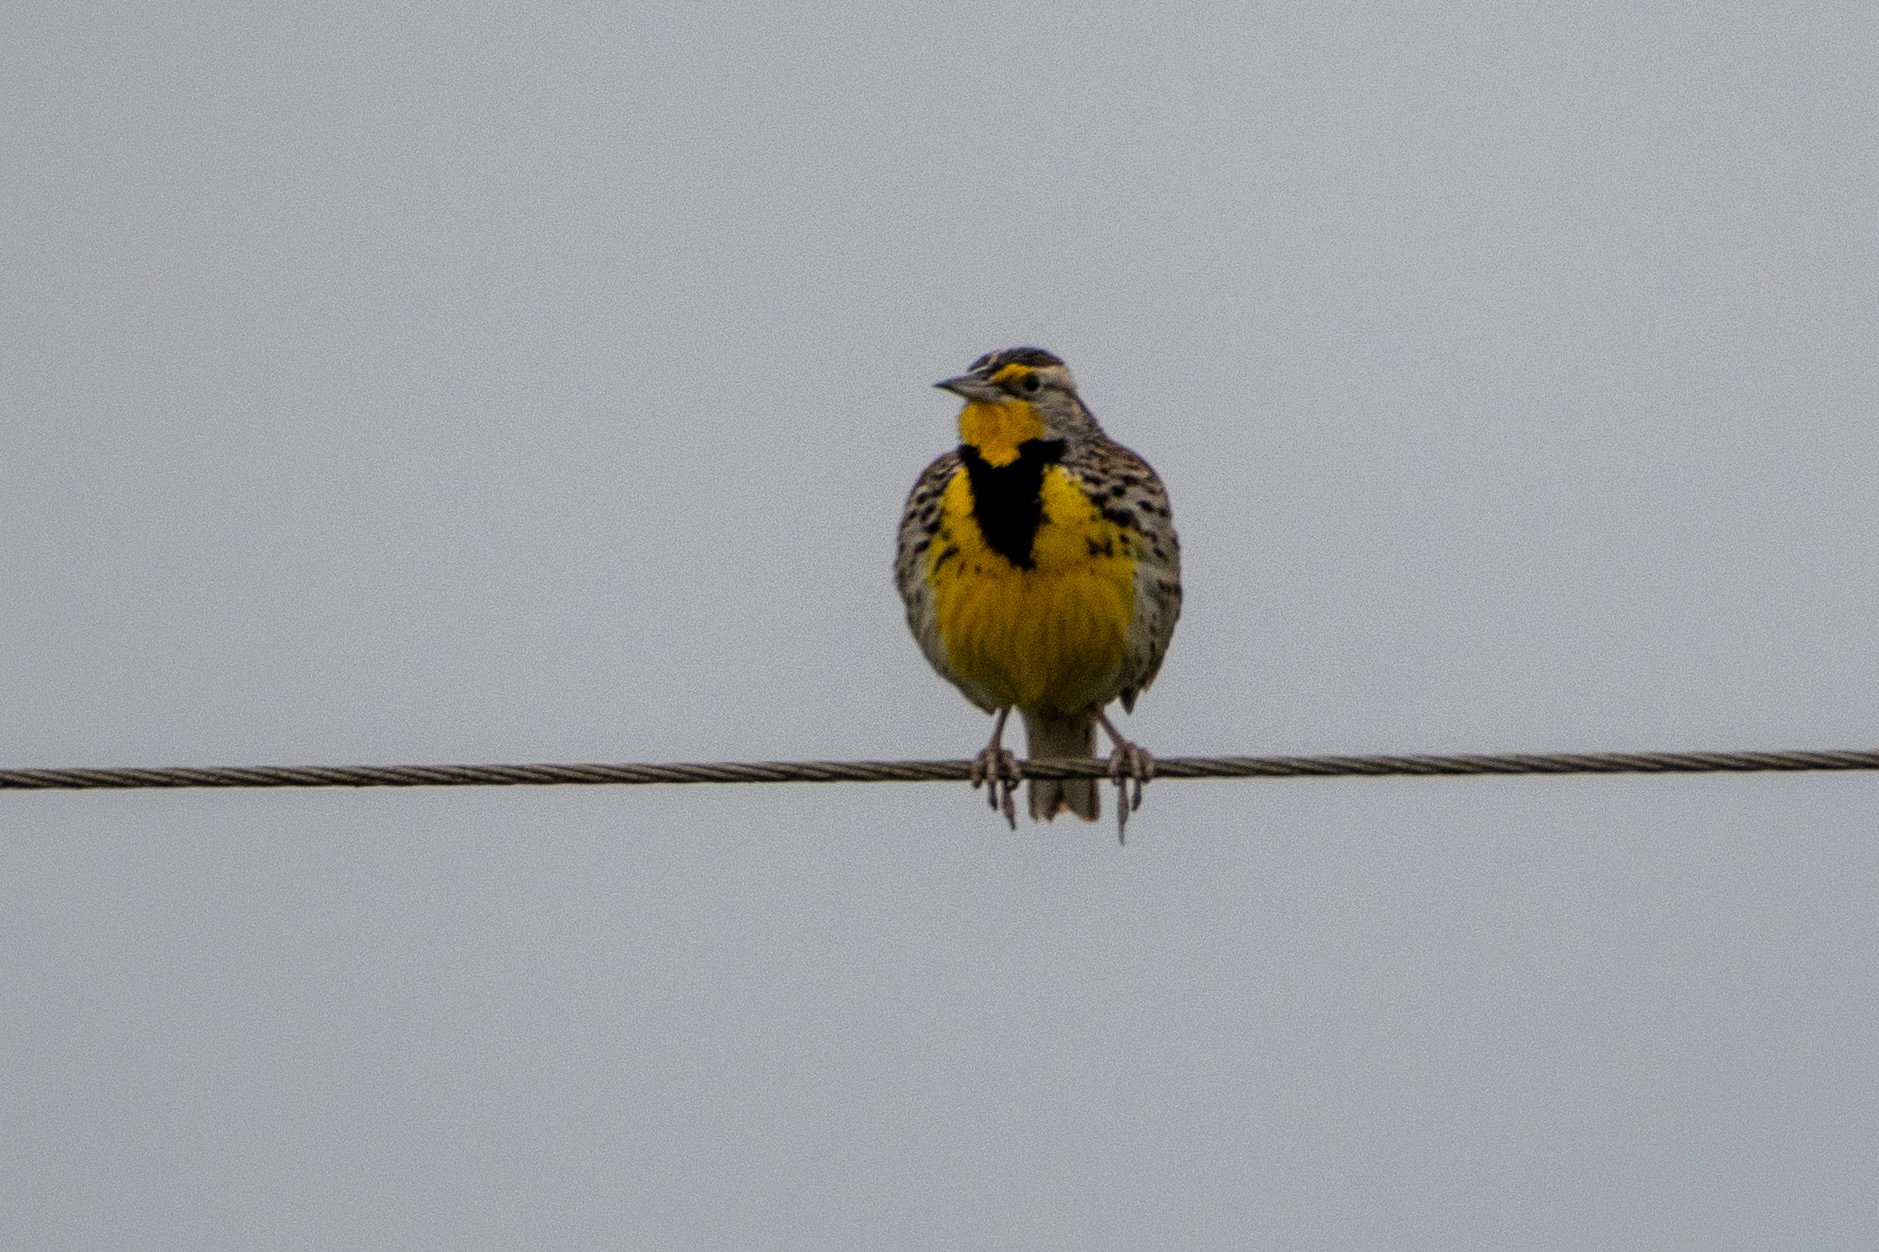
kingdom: Animalia
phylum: Chordata
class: Aves
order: Passeriformes
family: Icteridae
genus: Sturnella
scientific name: Sturnella neglecta
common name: Western meadowlark
